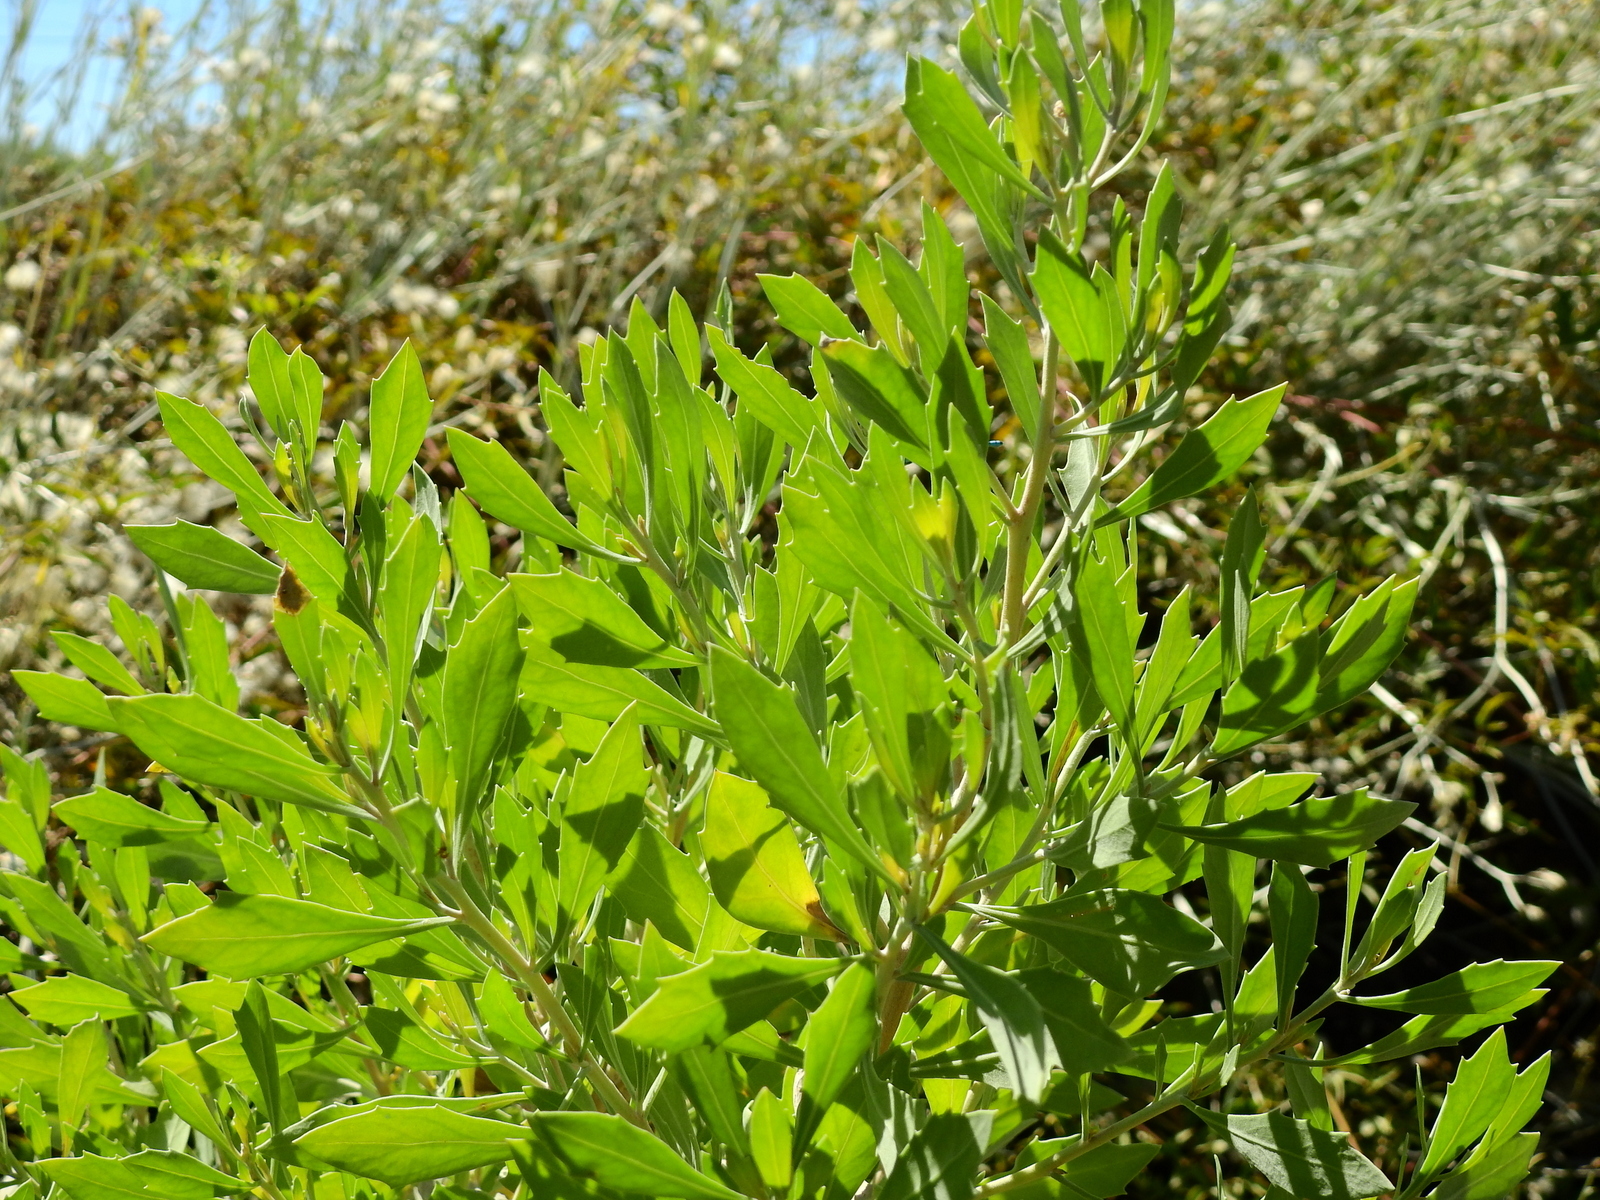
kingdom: Plantae
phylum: Tracheophyta
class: Magnoliopsida
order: Asterales
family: Asteraceae
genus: Tessaria
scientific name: Tessaria absinthioides
